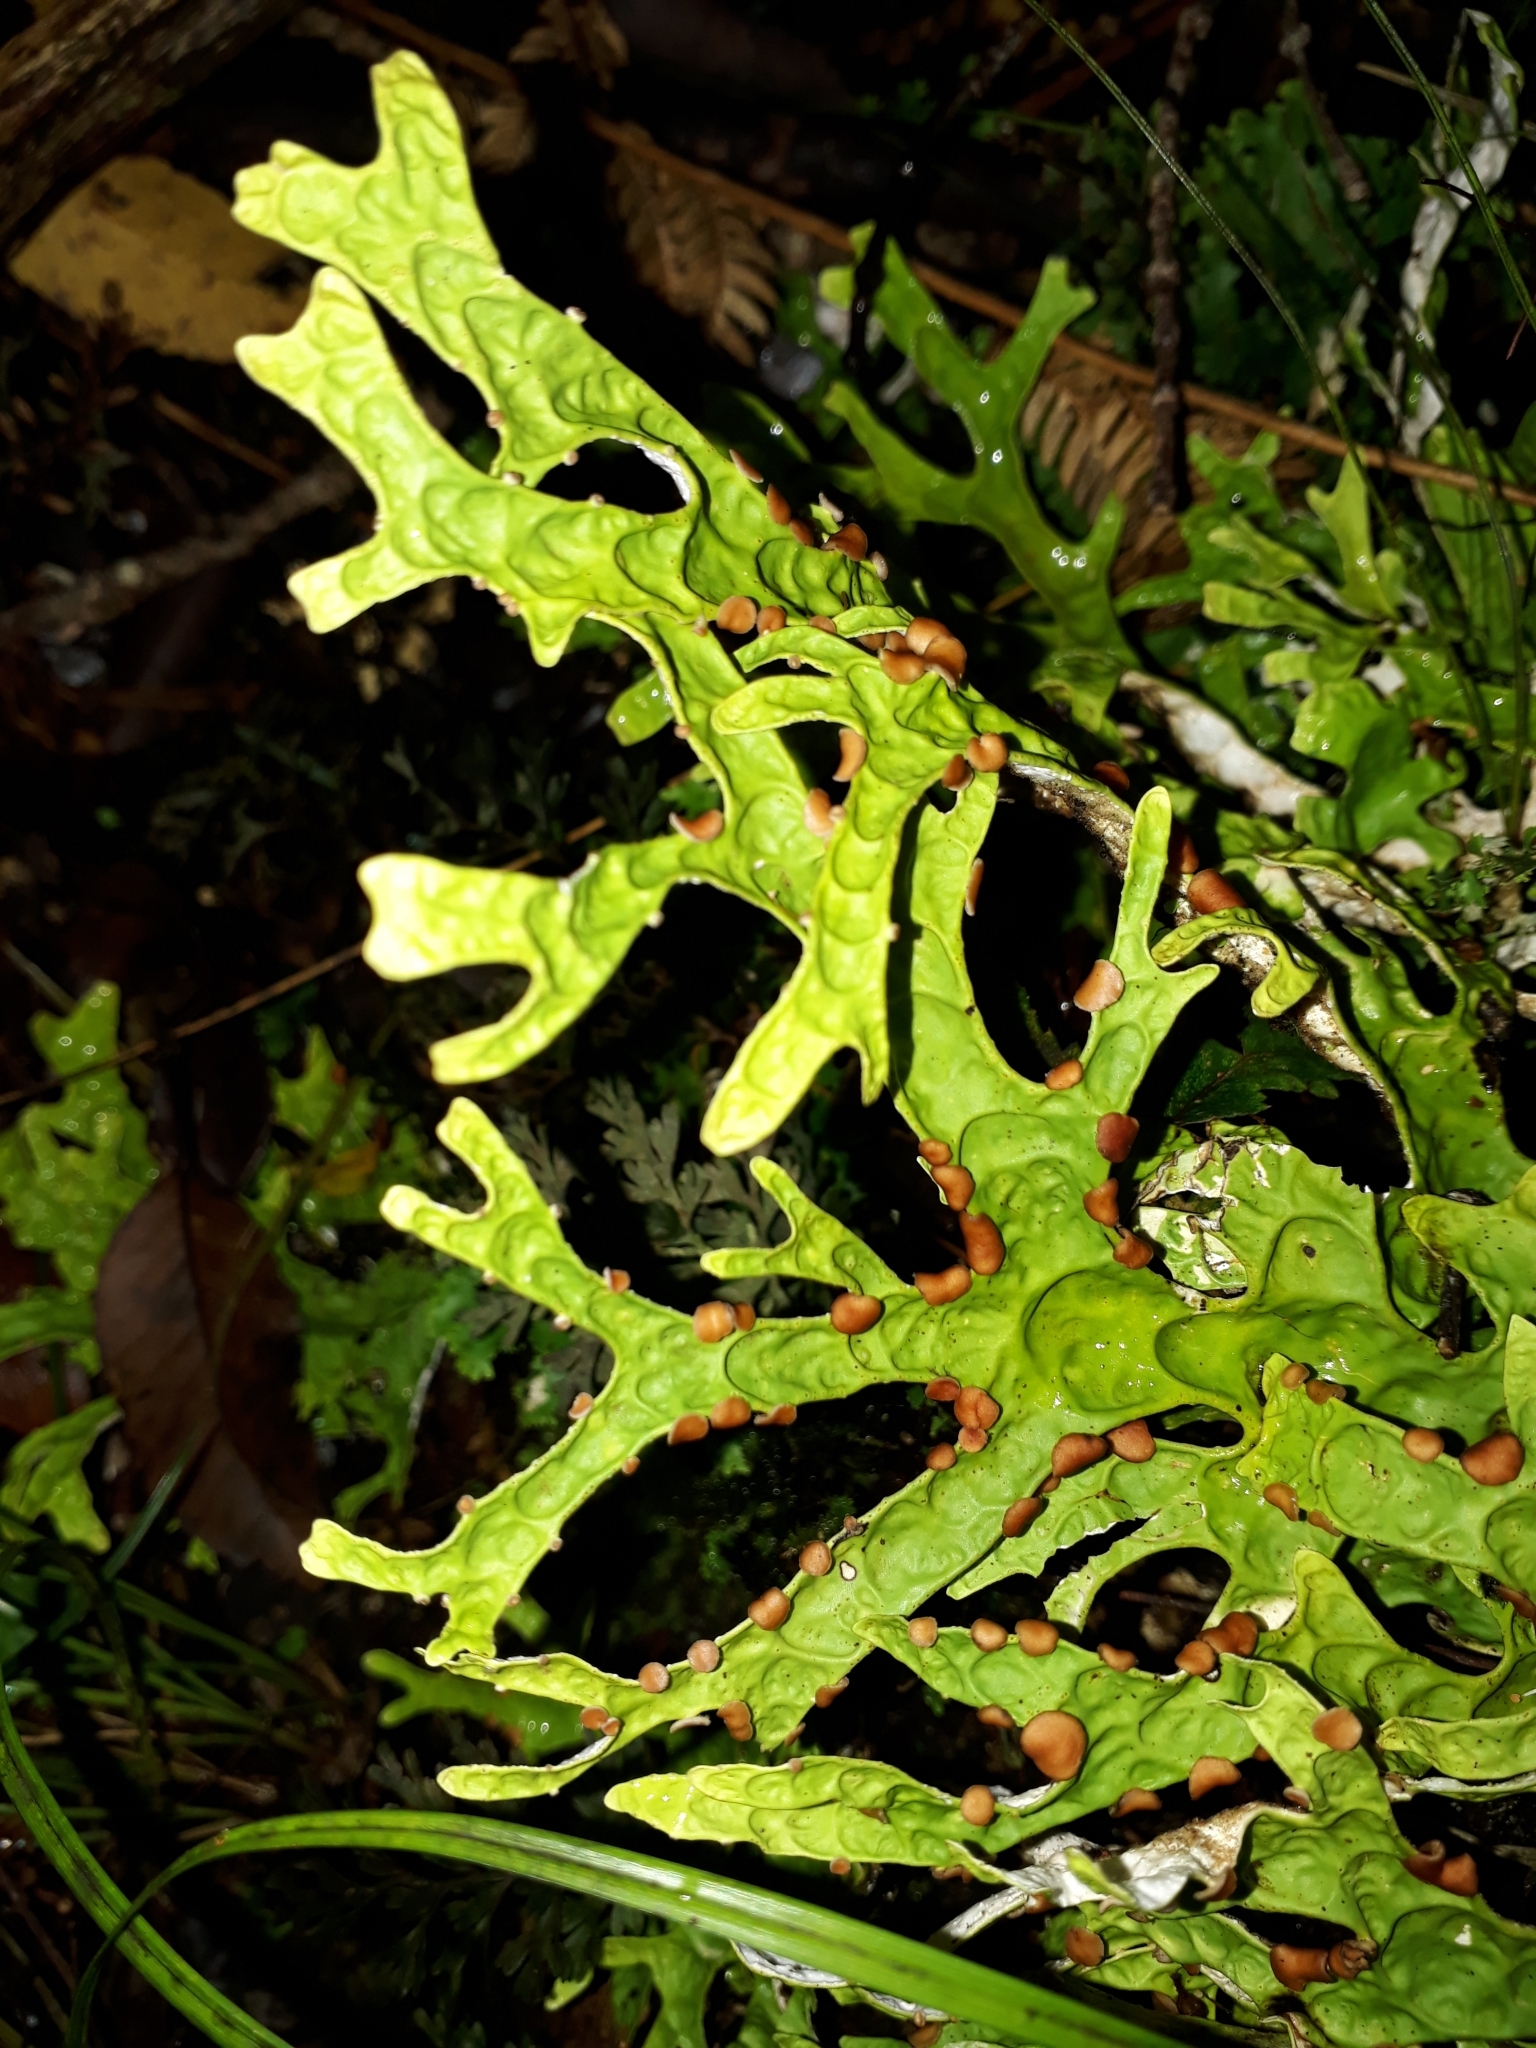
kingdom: Fungi
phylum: Ascomycota
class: Lecanoromycetes
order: Peltigerales
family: Lobariaceae
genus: Pseudocyphellaria
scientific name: Pseudocyphellaria rufovirescens
